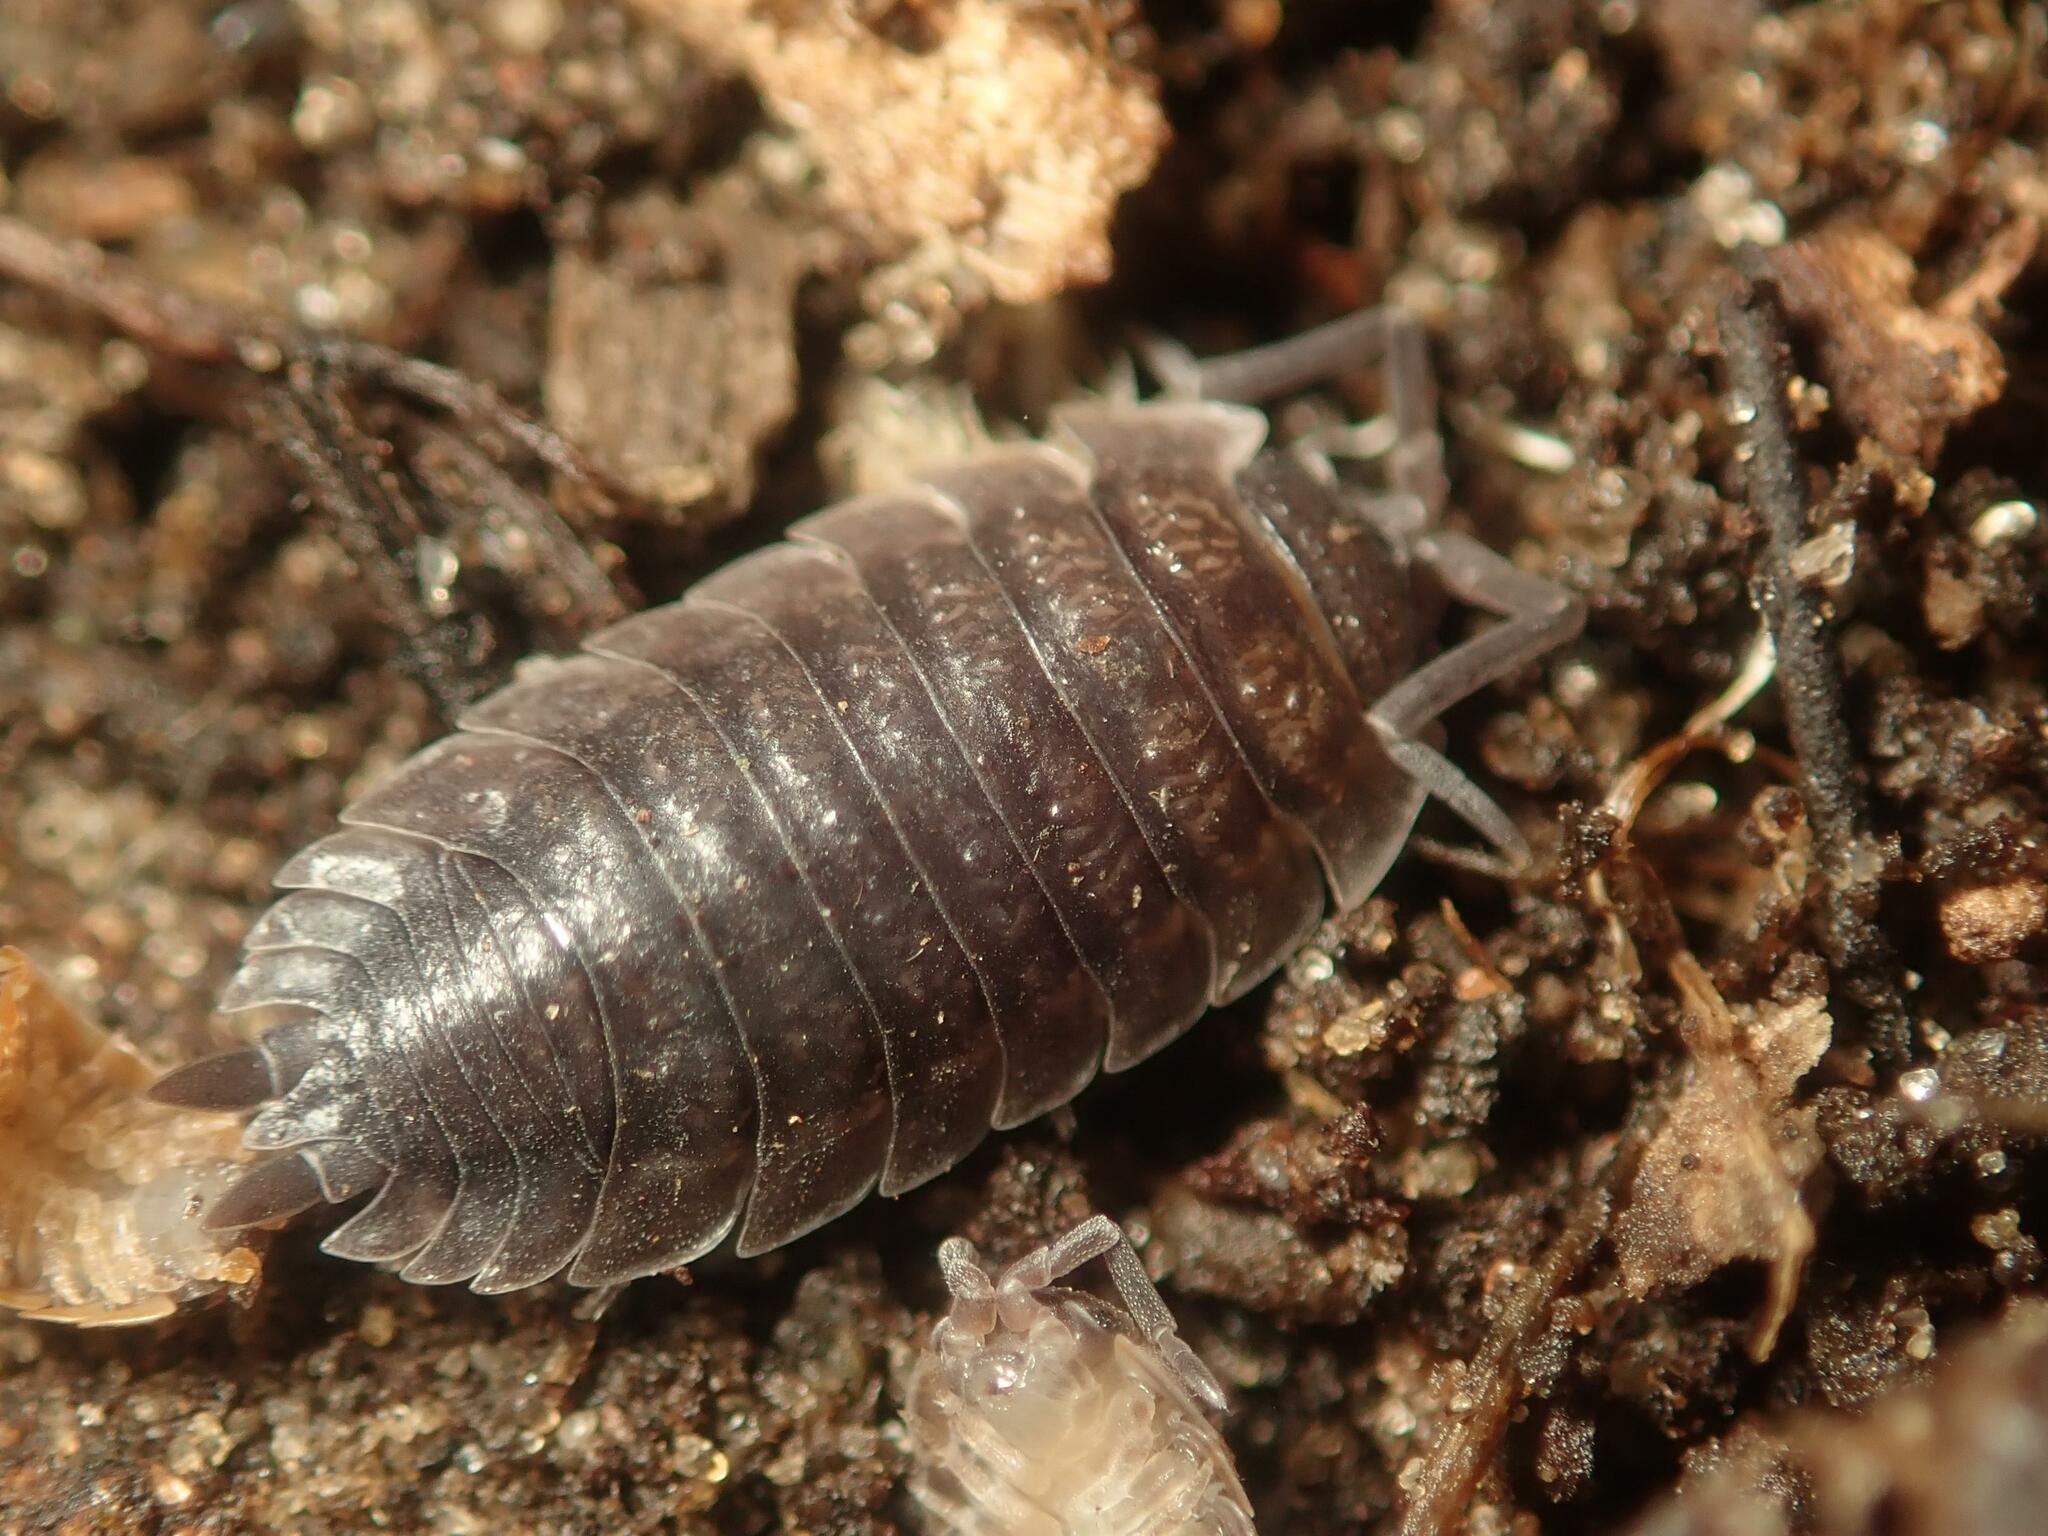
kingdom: Animalia
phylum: Arthropoda
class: Malacostraca
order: Isopoda
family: Porcellionidae
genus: Porcellio
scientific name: Porcellio scaber
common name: Common rough woodlouse
